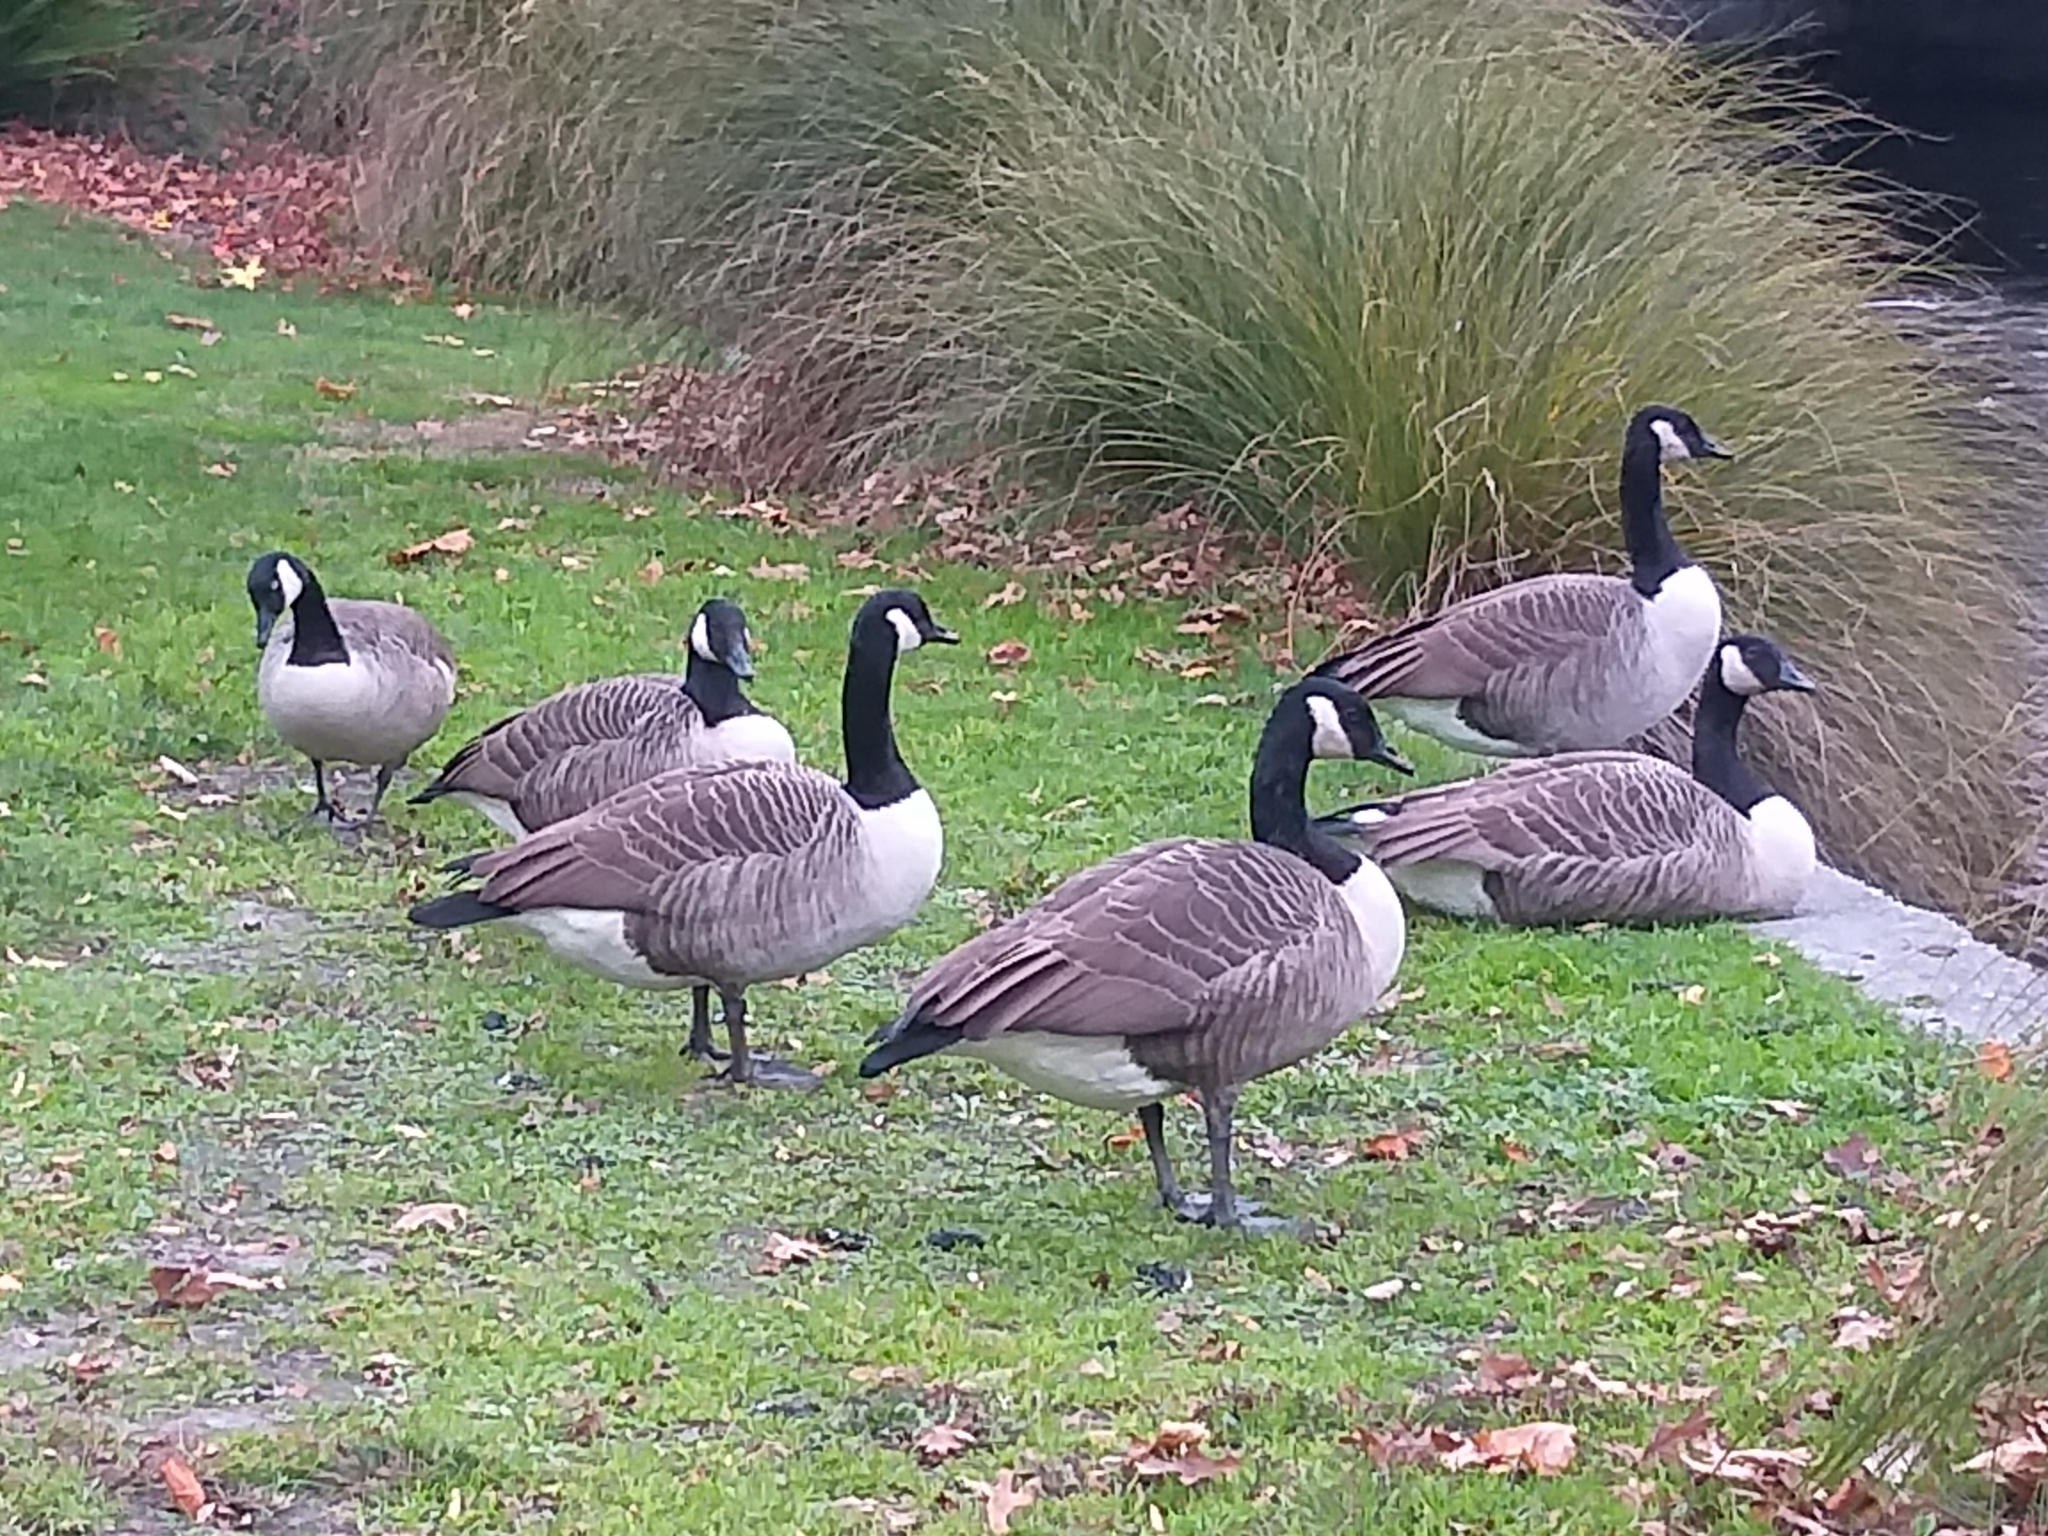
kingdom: Animalia
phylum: Chordata
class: Aves
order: Anseriformes
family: Anatidae
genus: Branta
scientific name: Branta canadensis
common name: Canada goose
